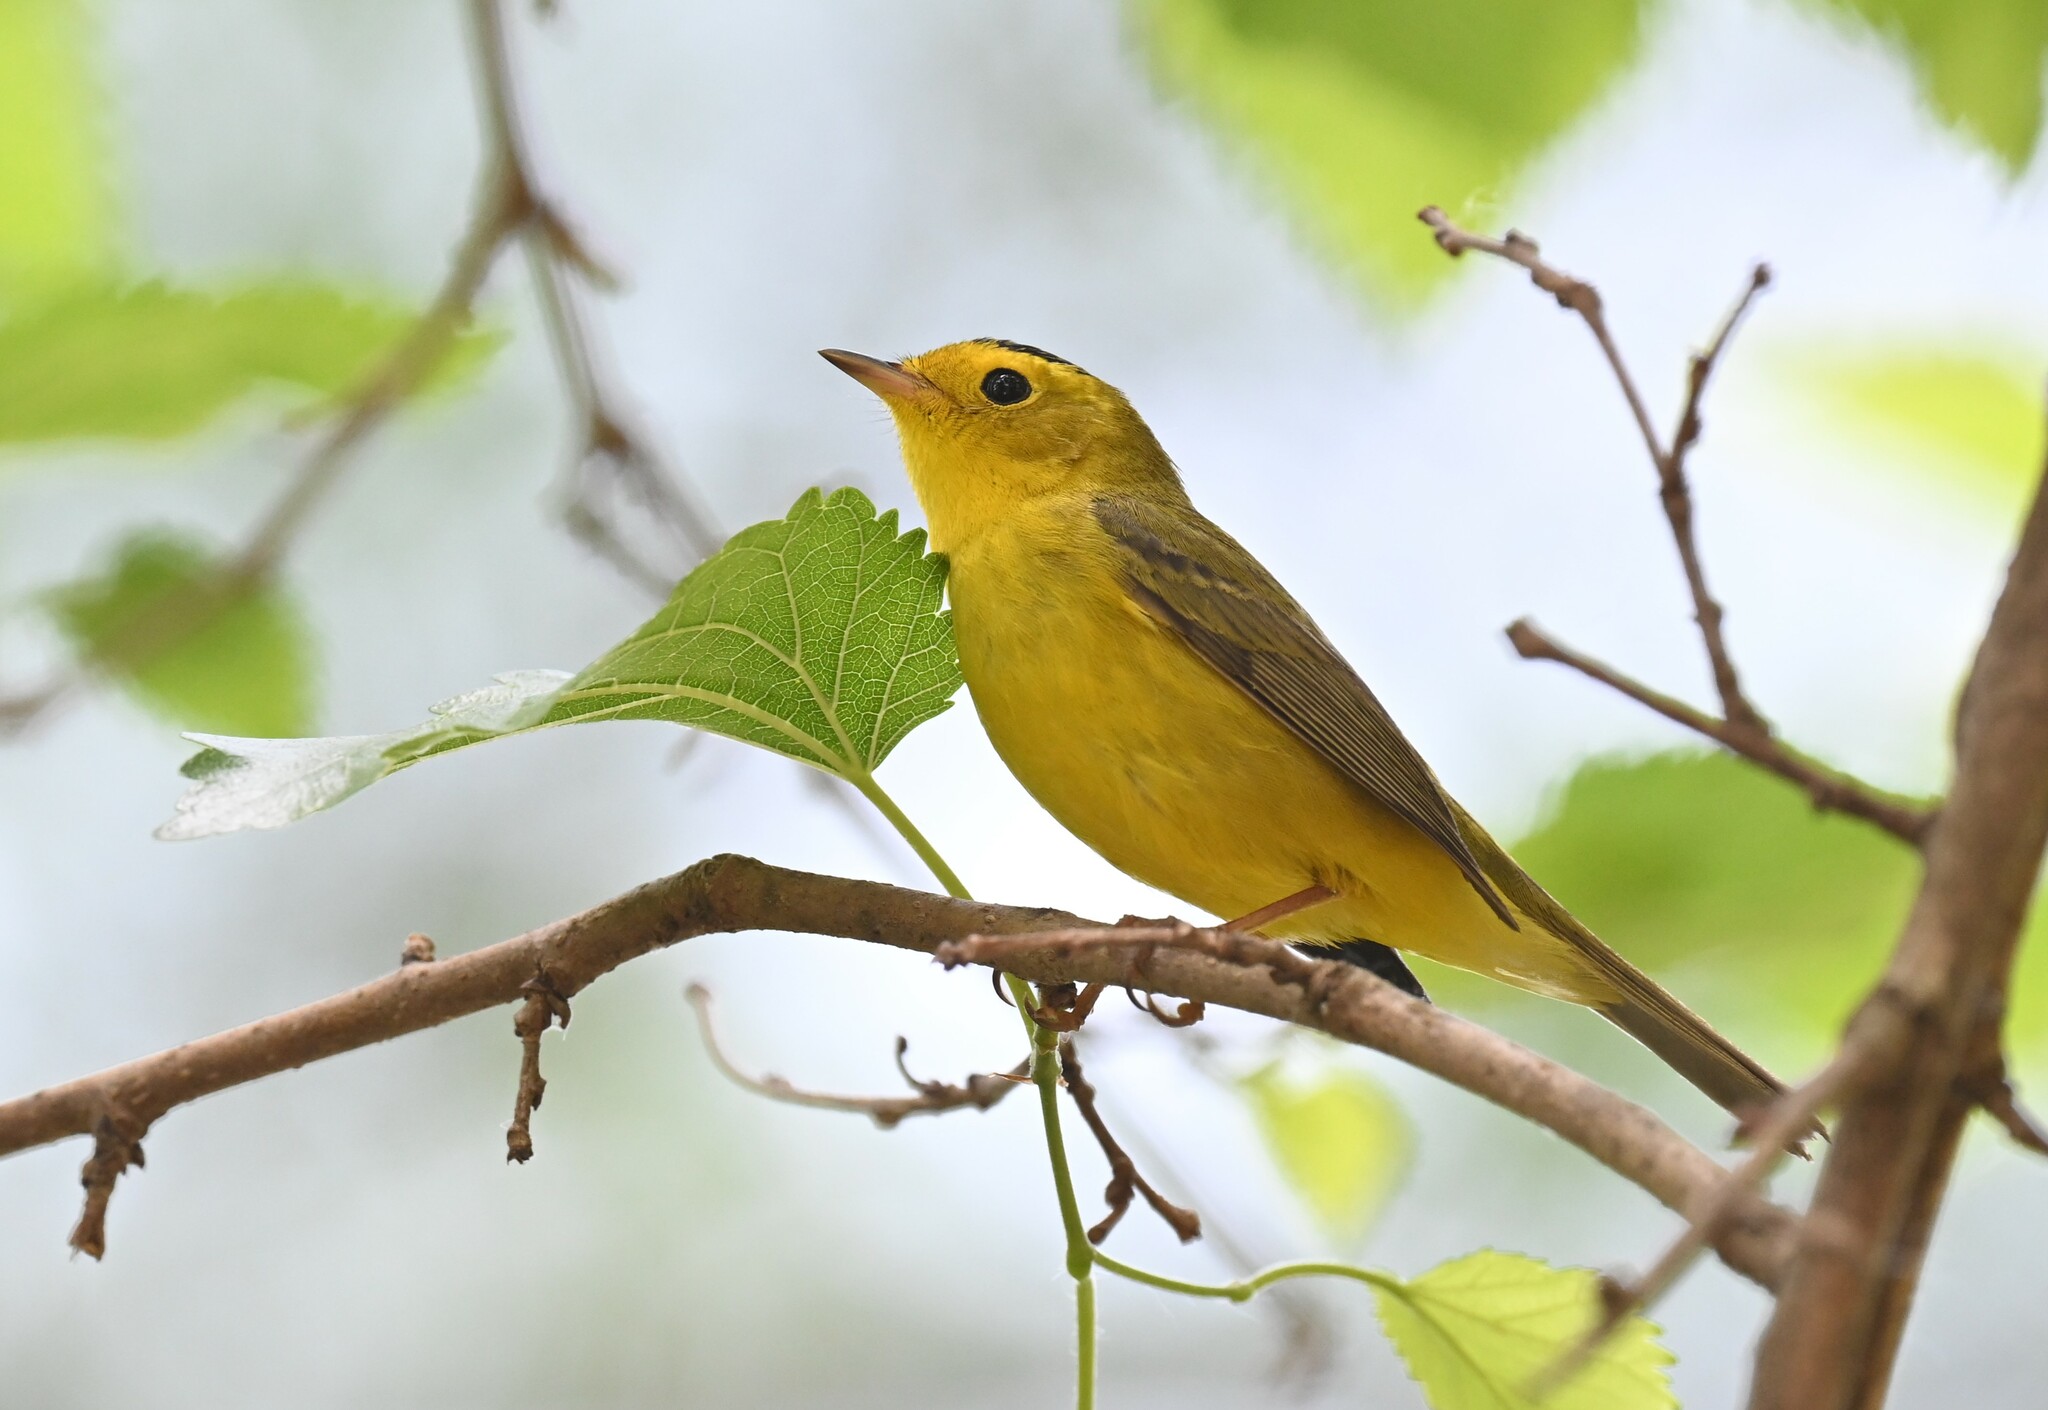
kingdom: Animalia
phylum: Chordata
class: Aves
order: Passeriformes
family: Parulidae
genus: Cardellina
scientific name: Cardellina pusilla
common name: Wilson's warbler
